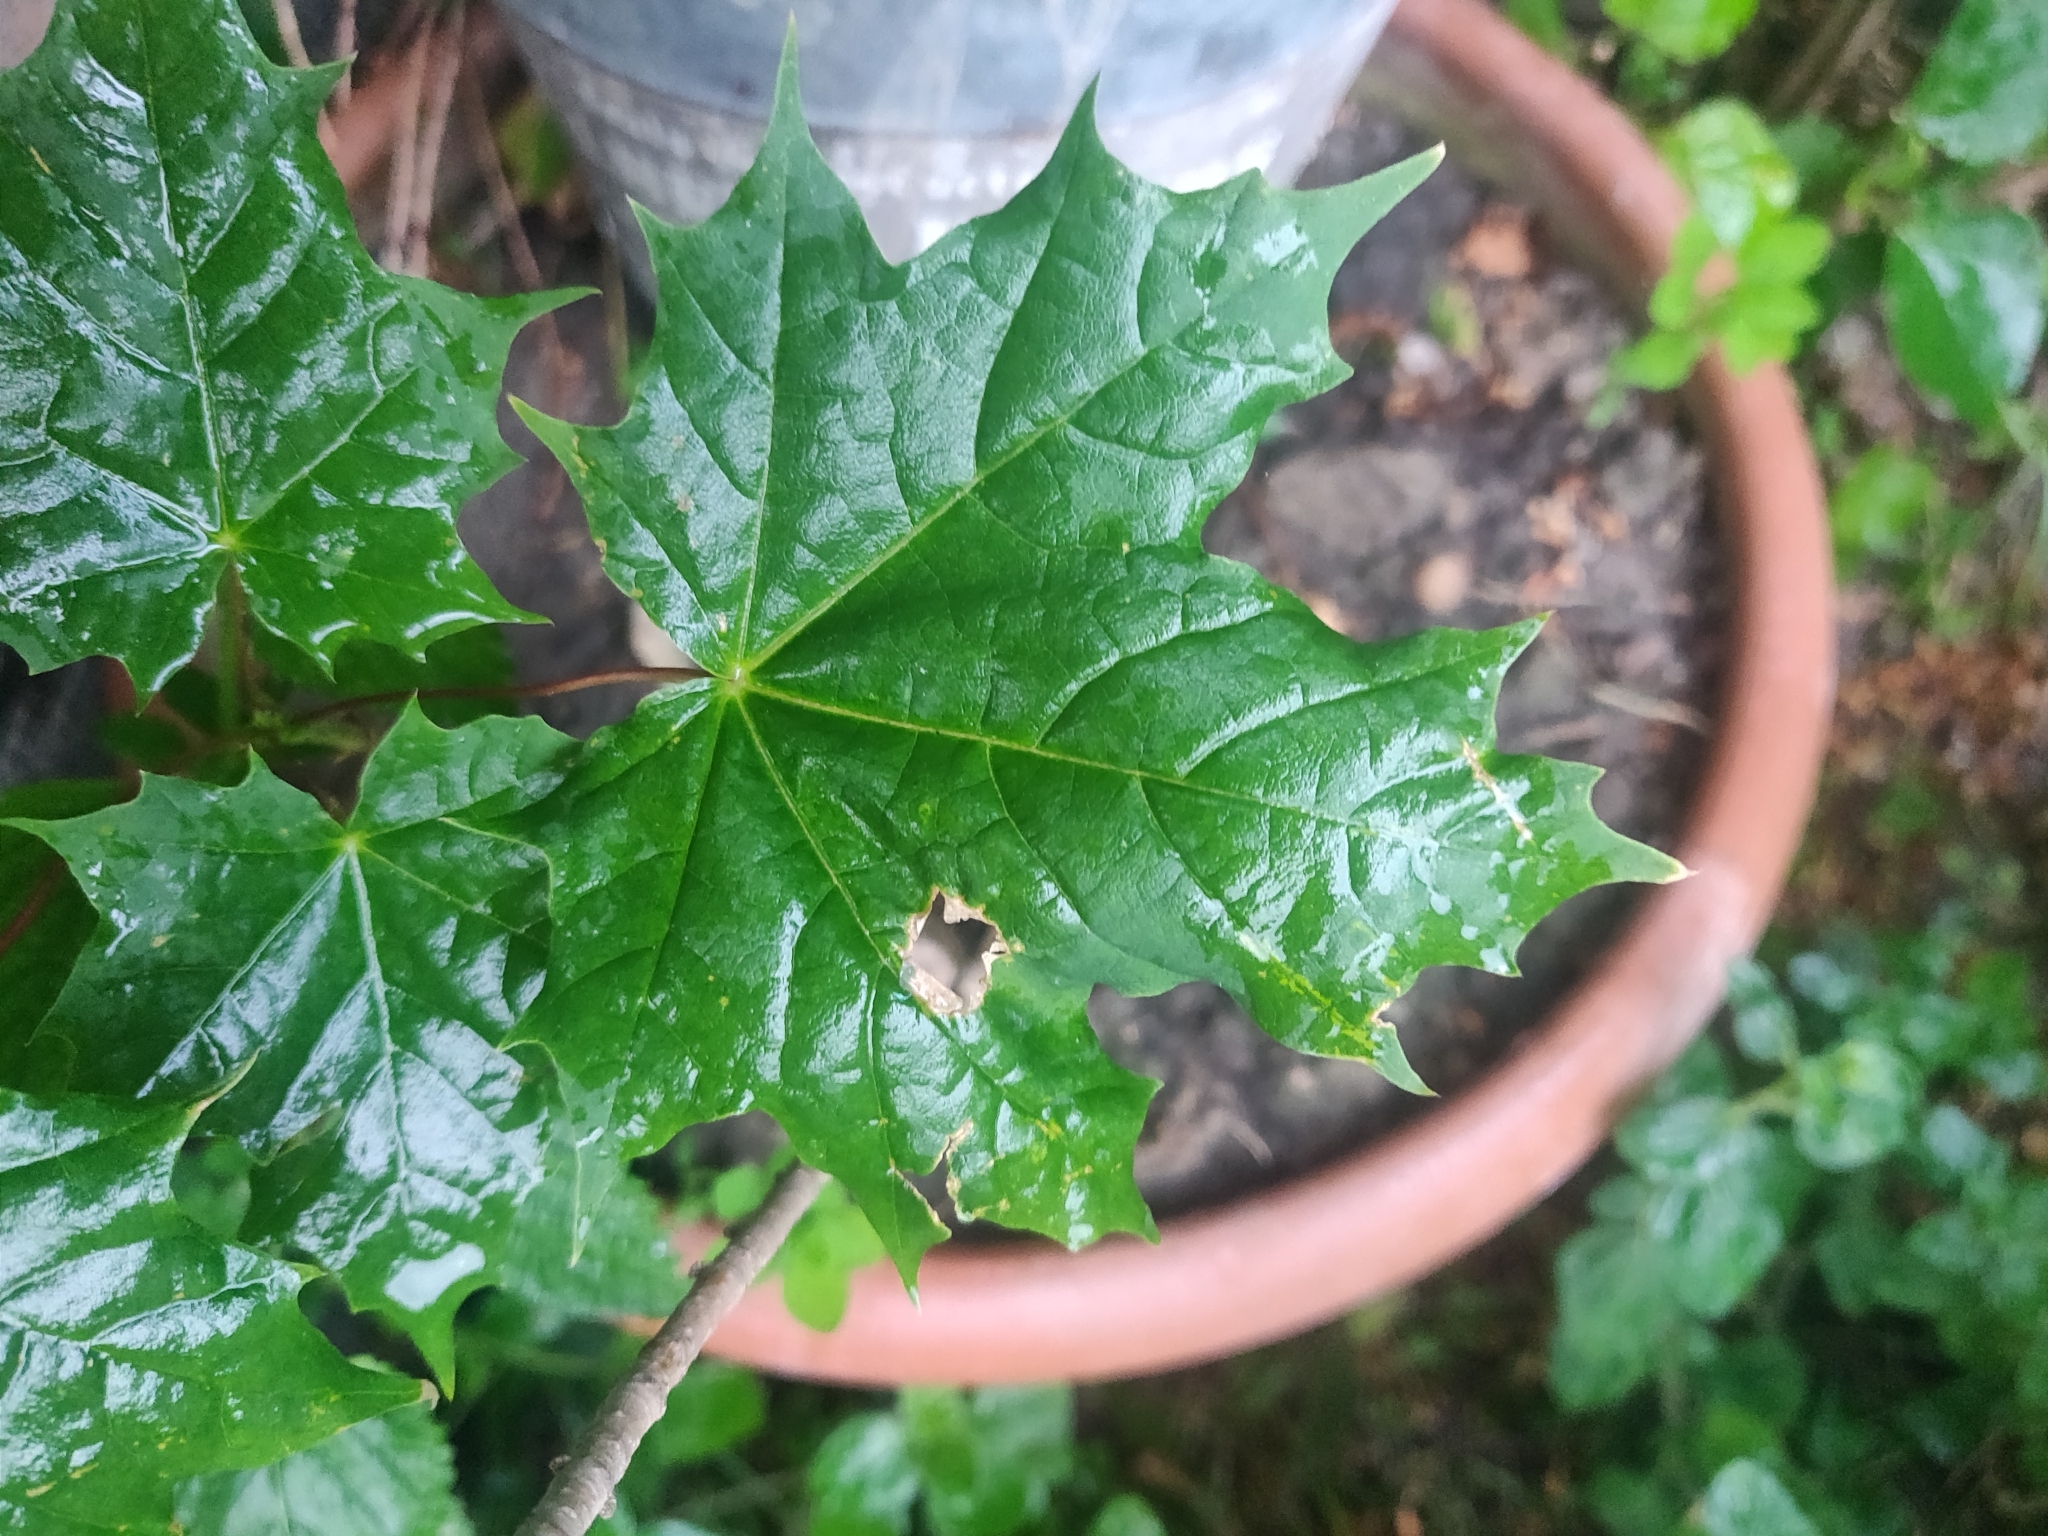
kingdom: Plantae
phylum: Tracheophyta
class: Magnoliopsida
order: Sapindales
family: Sapindaceae
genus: Acer
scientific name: Acer platanoides
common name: Norway maple
